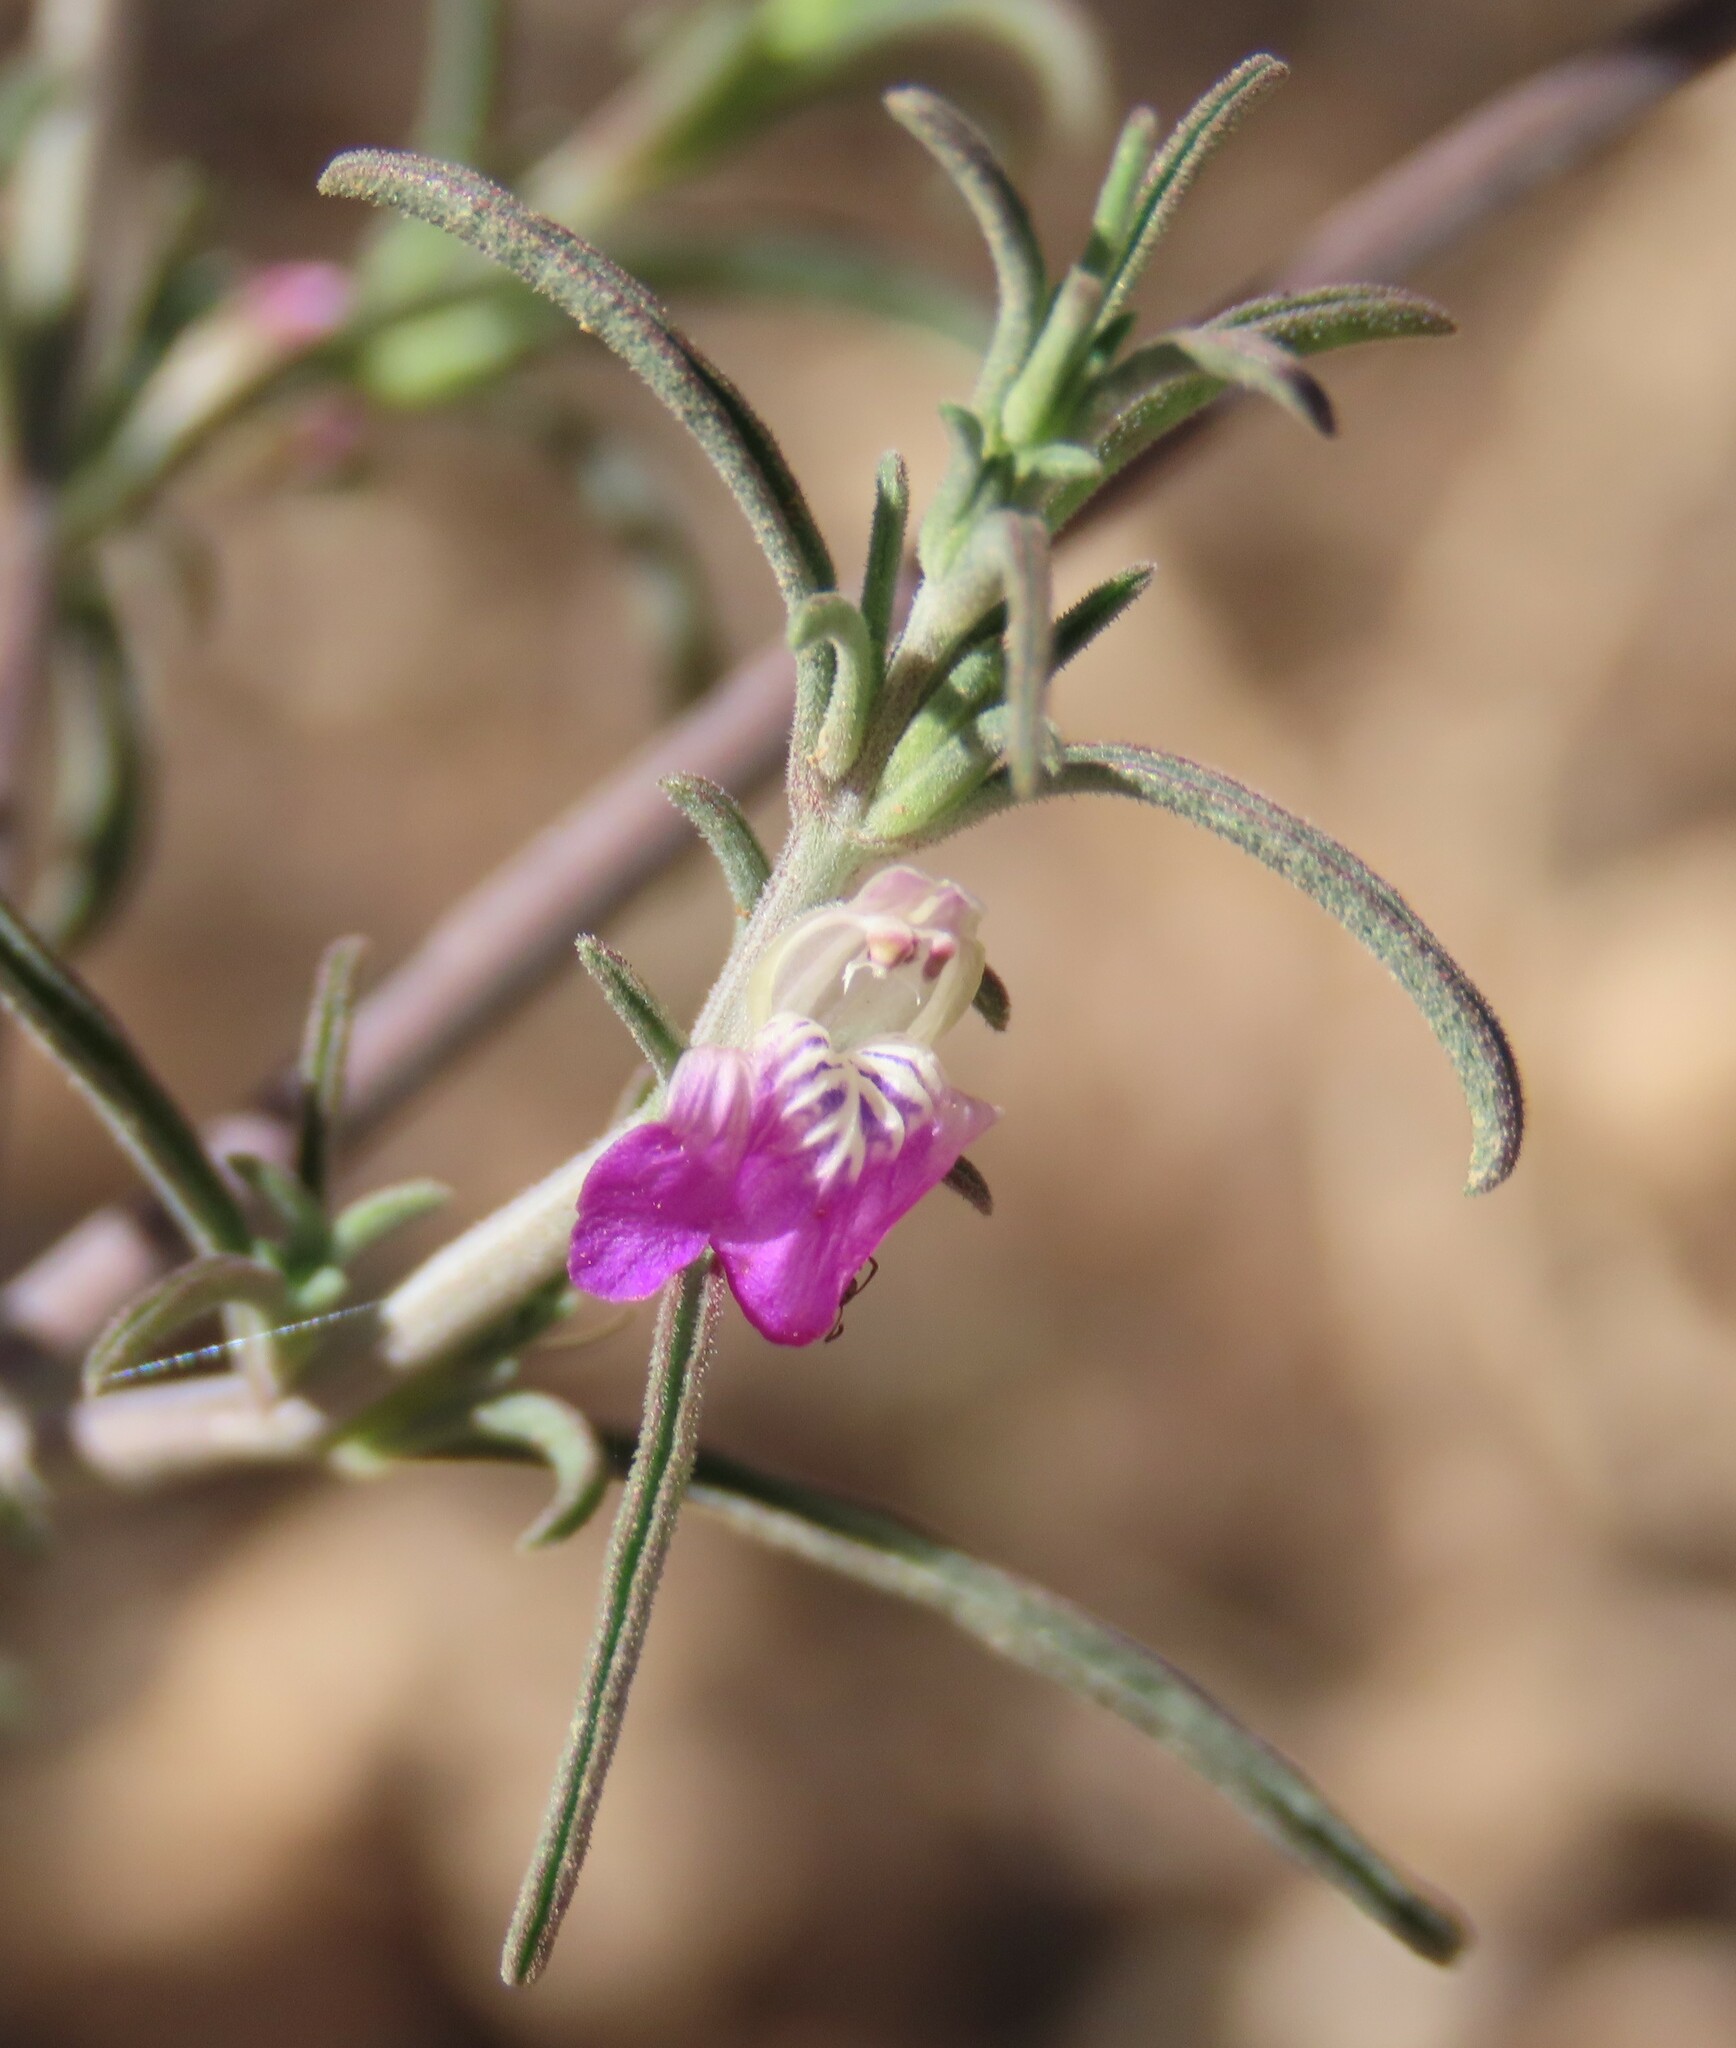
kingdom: Plantae
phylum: Tracheophyta
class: Magnoliopsida
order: Lamiales
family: Acanthaceae
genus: Pogonospermum
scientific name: Pogonospermum
